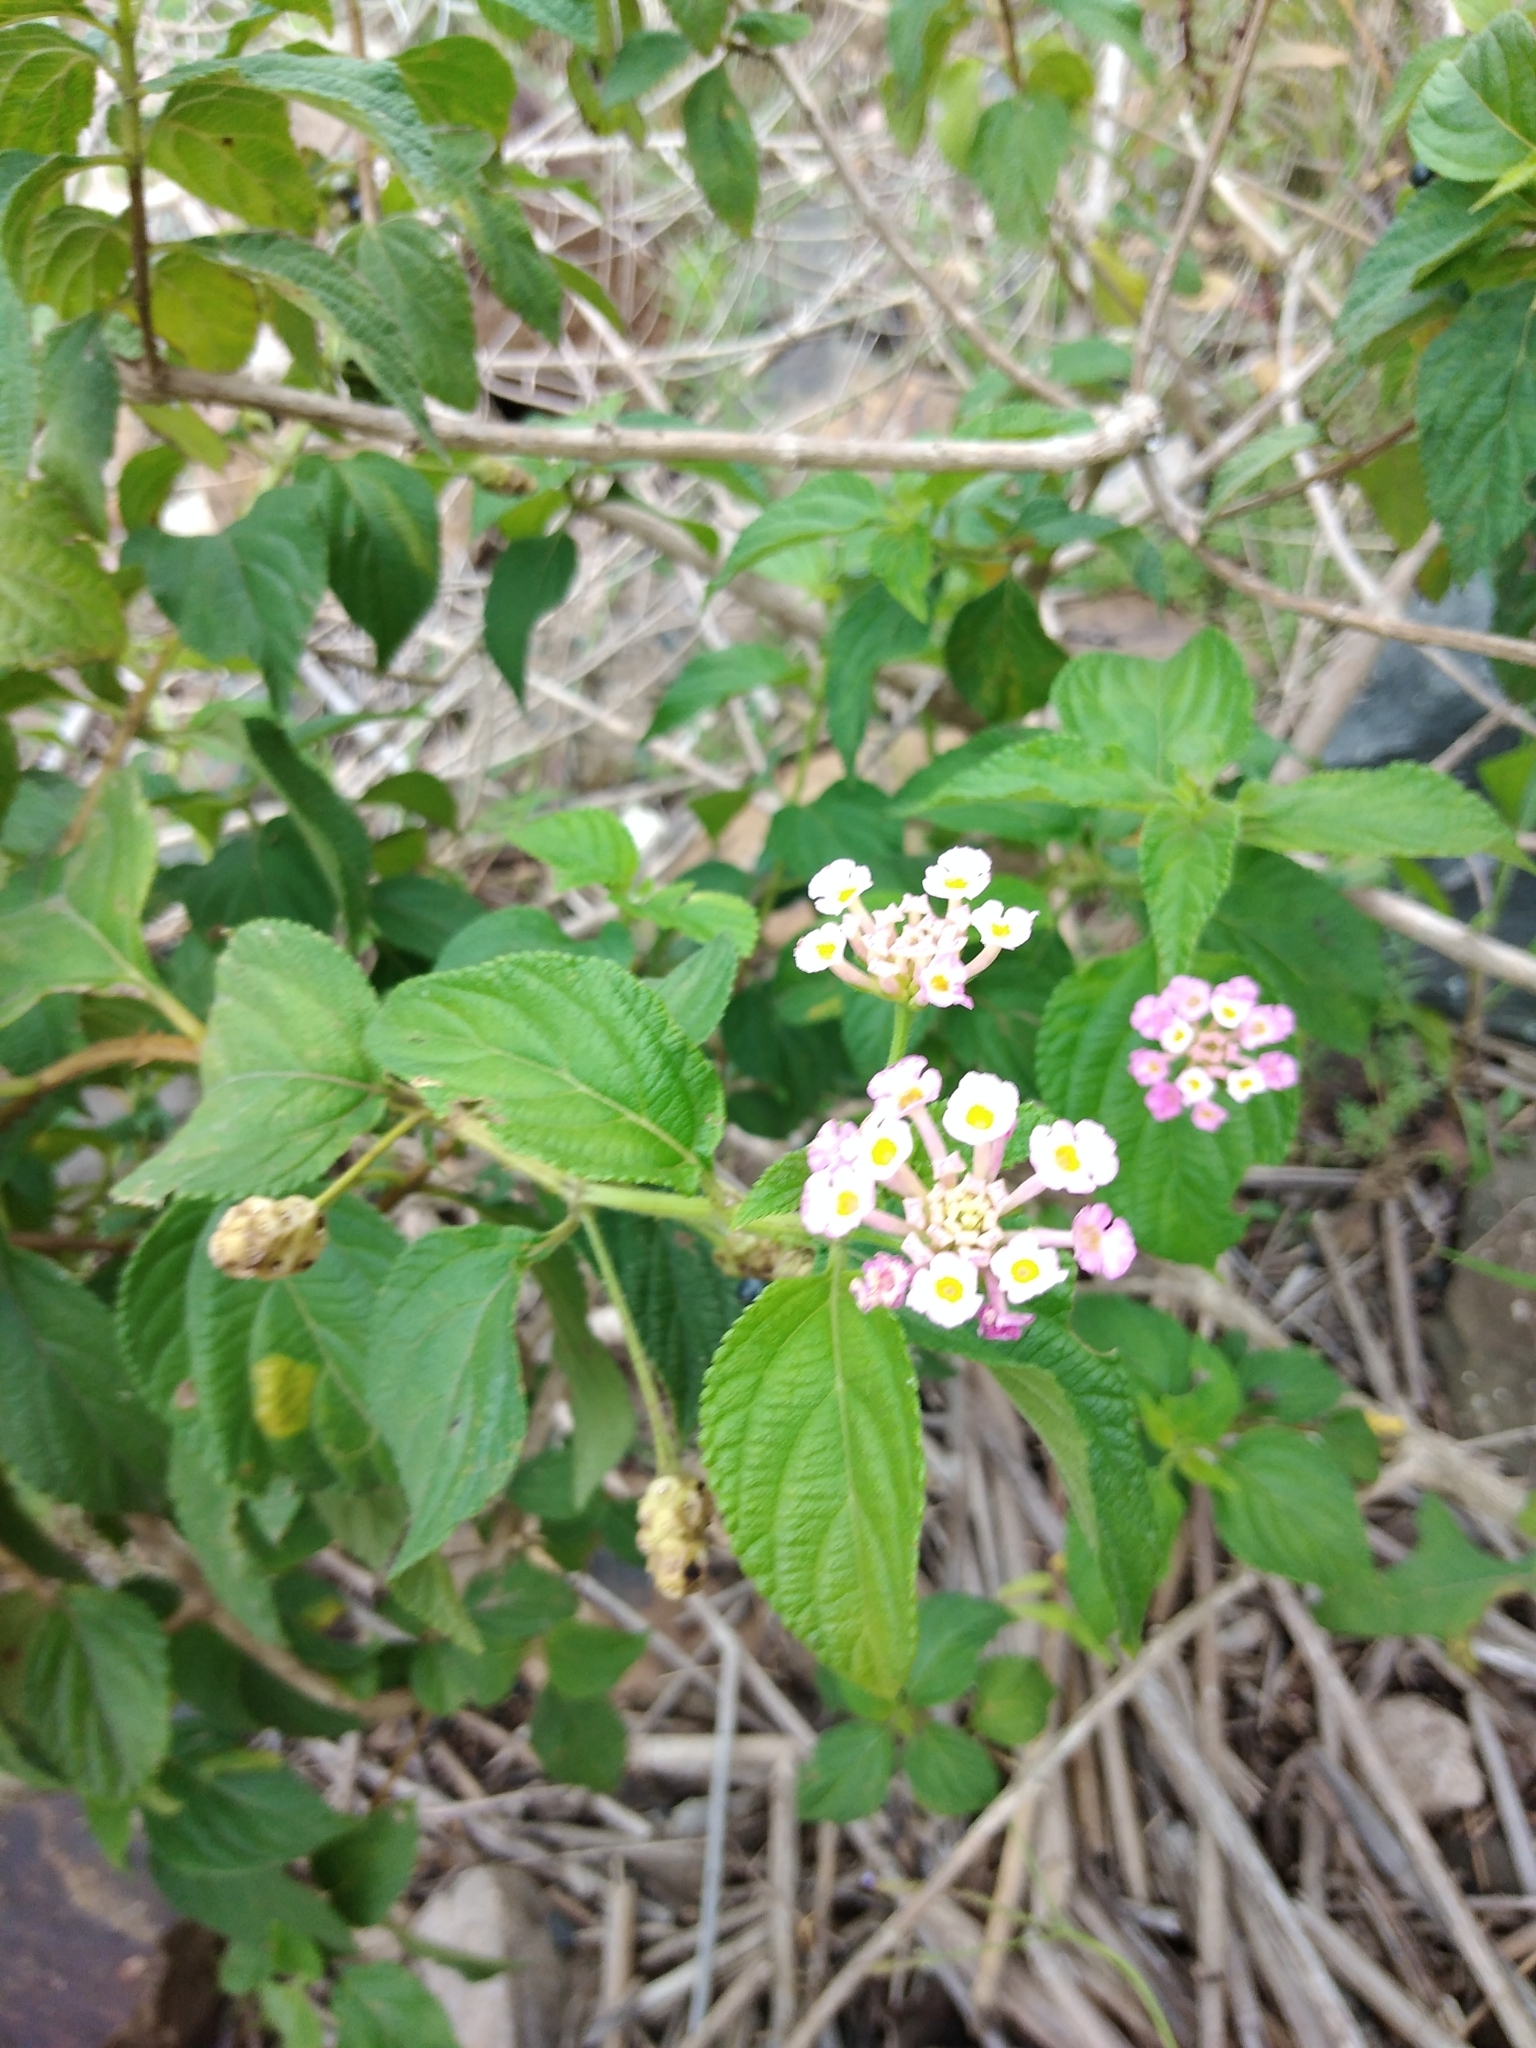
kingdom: Plantae
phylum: Tracheophyta
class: Magnoliopsida
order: Lamiales
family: Verbenaceae
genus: Lantana
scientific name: Lantana camara
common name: Lantana
